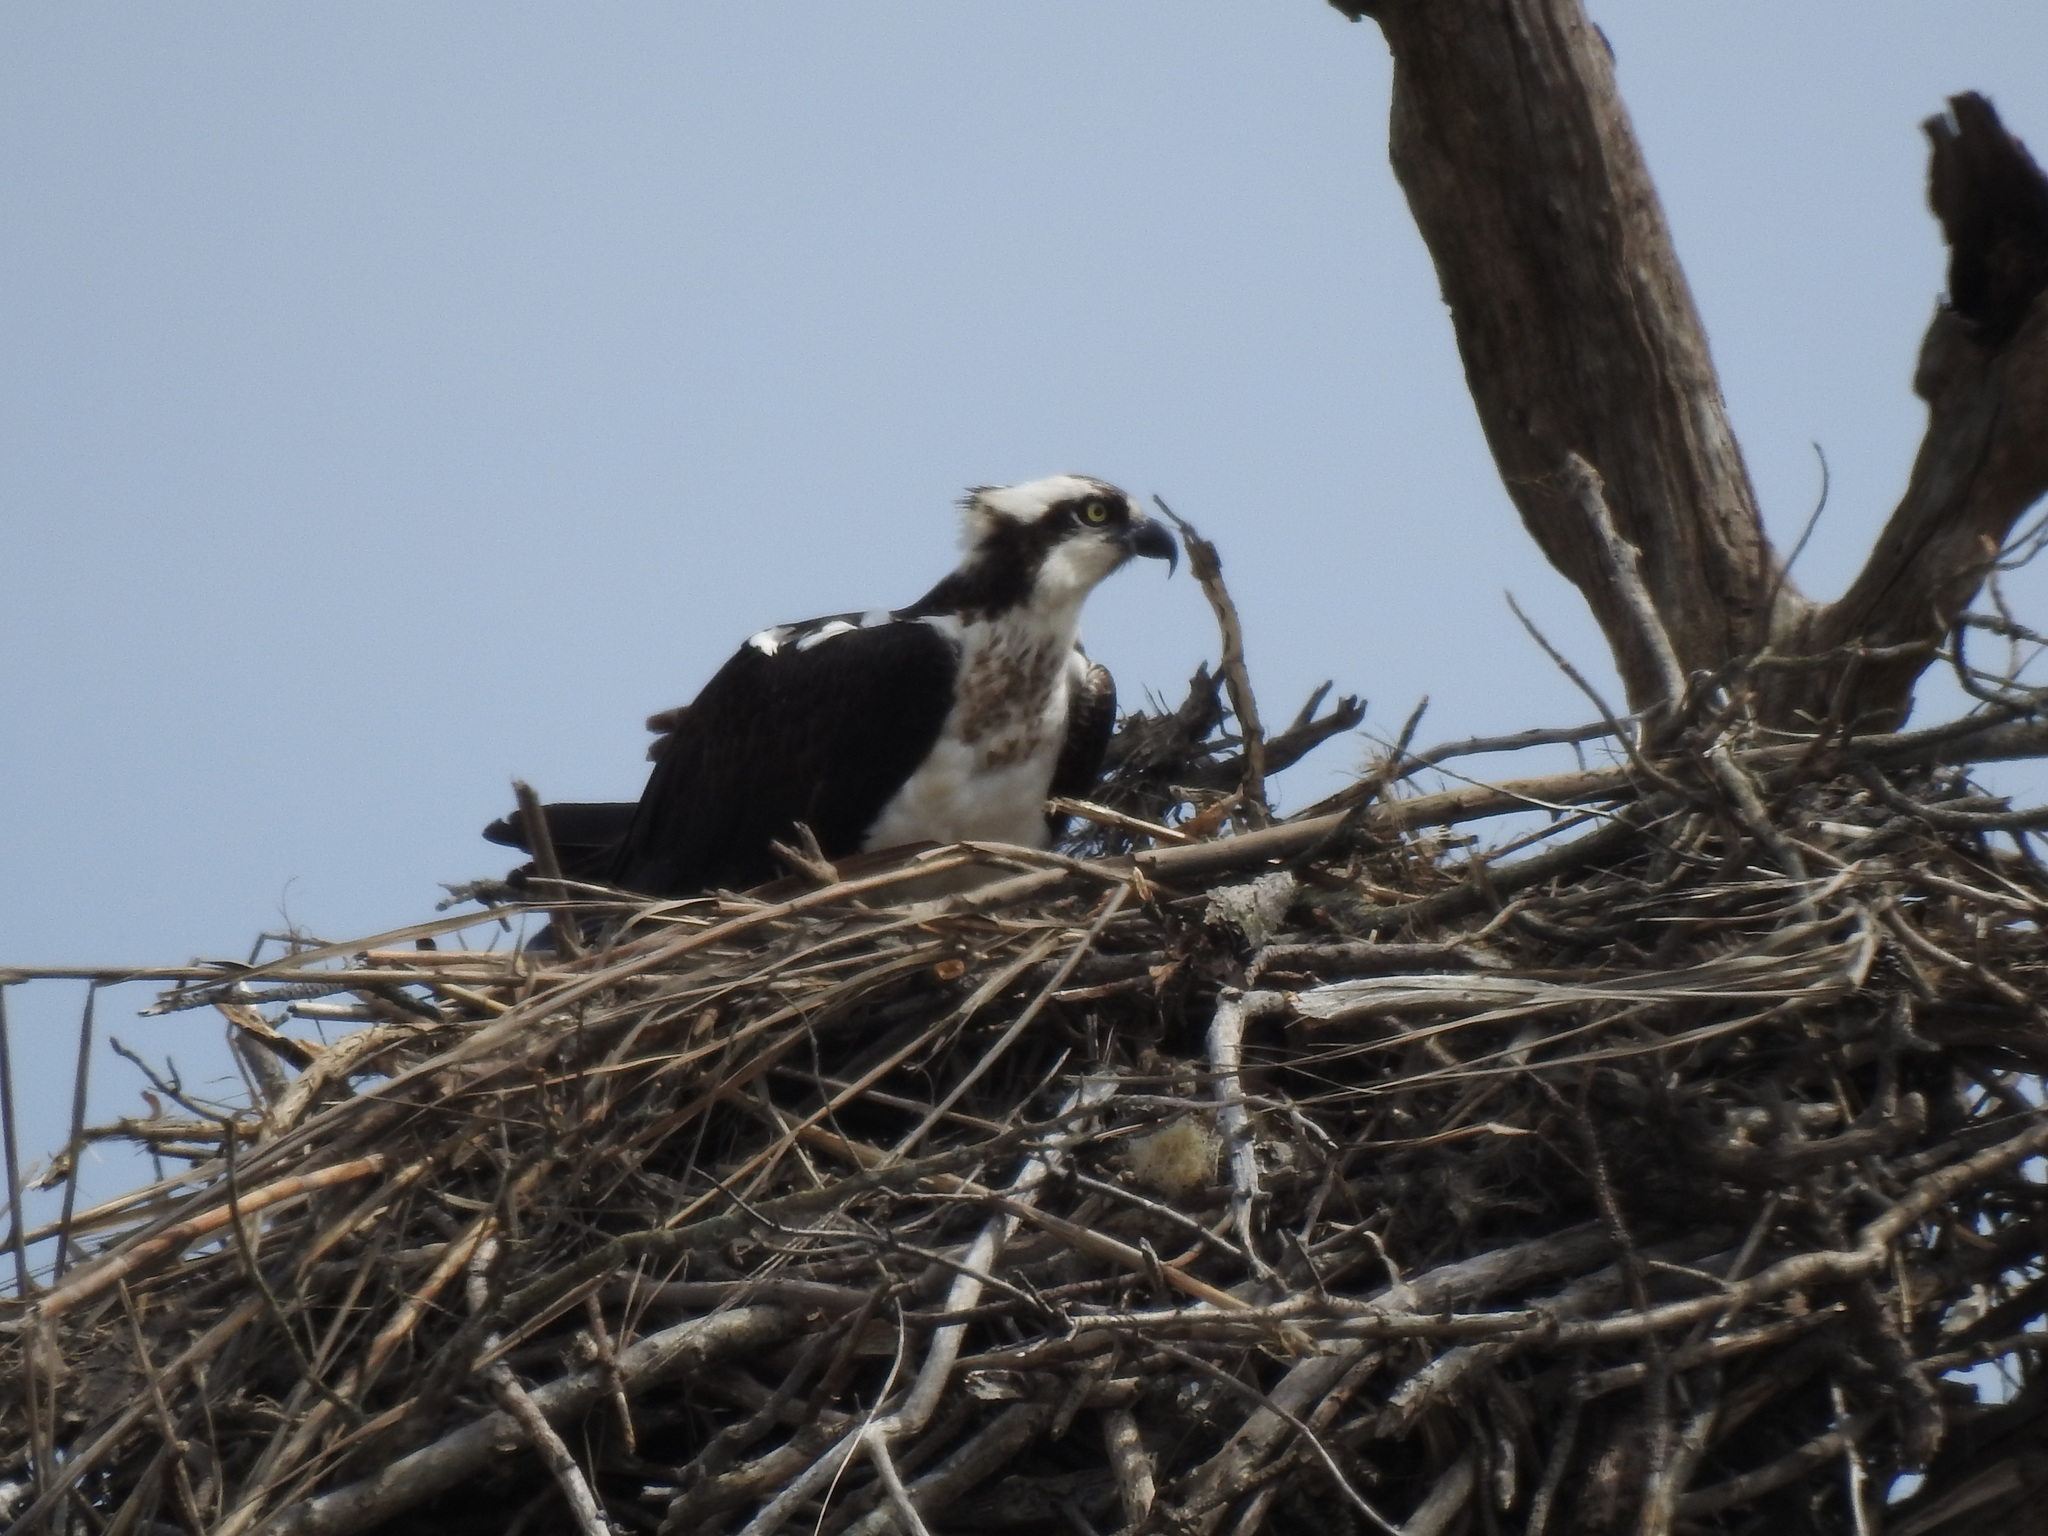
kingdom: Animalia
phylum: Chordata
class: Aves
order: Accipitriformes
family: Pandionidae
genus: Pandion
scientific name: Pandion haliaetus
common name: Osprey
